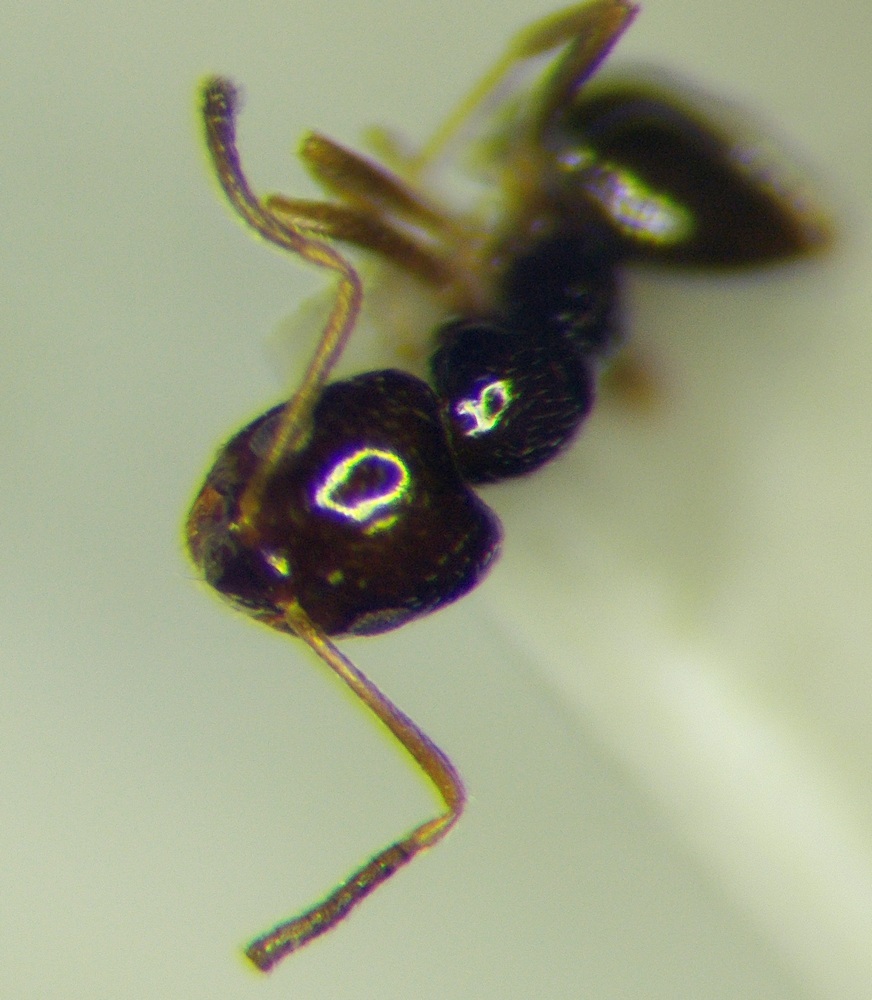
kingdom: Animalia
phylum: Arthropoda
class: Insecta
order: Hymenoptera
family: Formicidae
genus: Plagiolepis
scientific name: Plagiolepis pallescens
